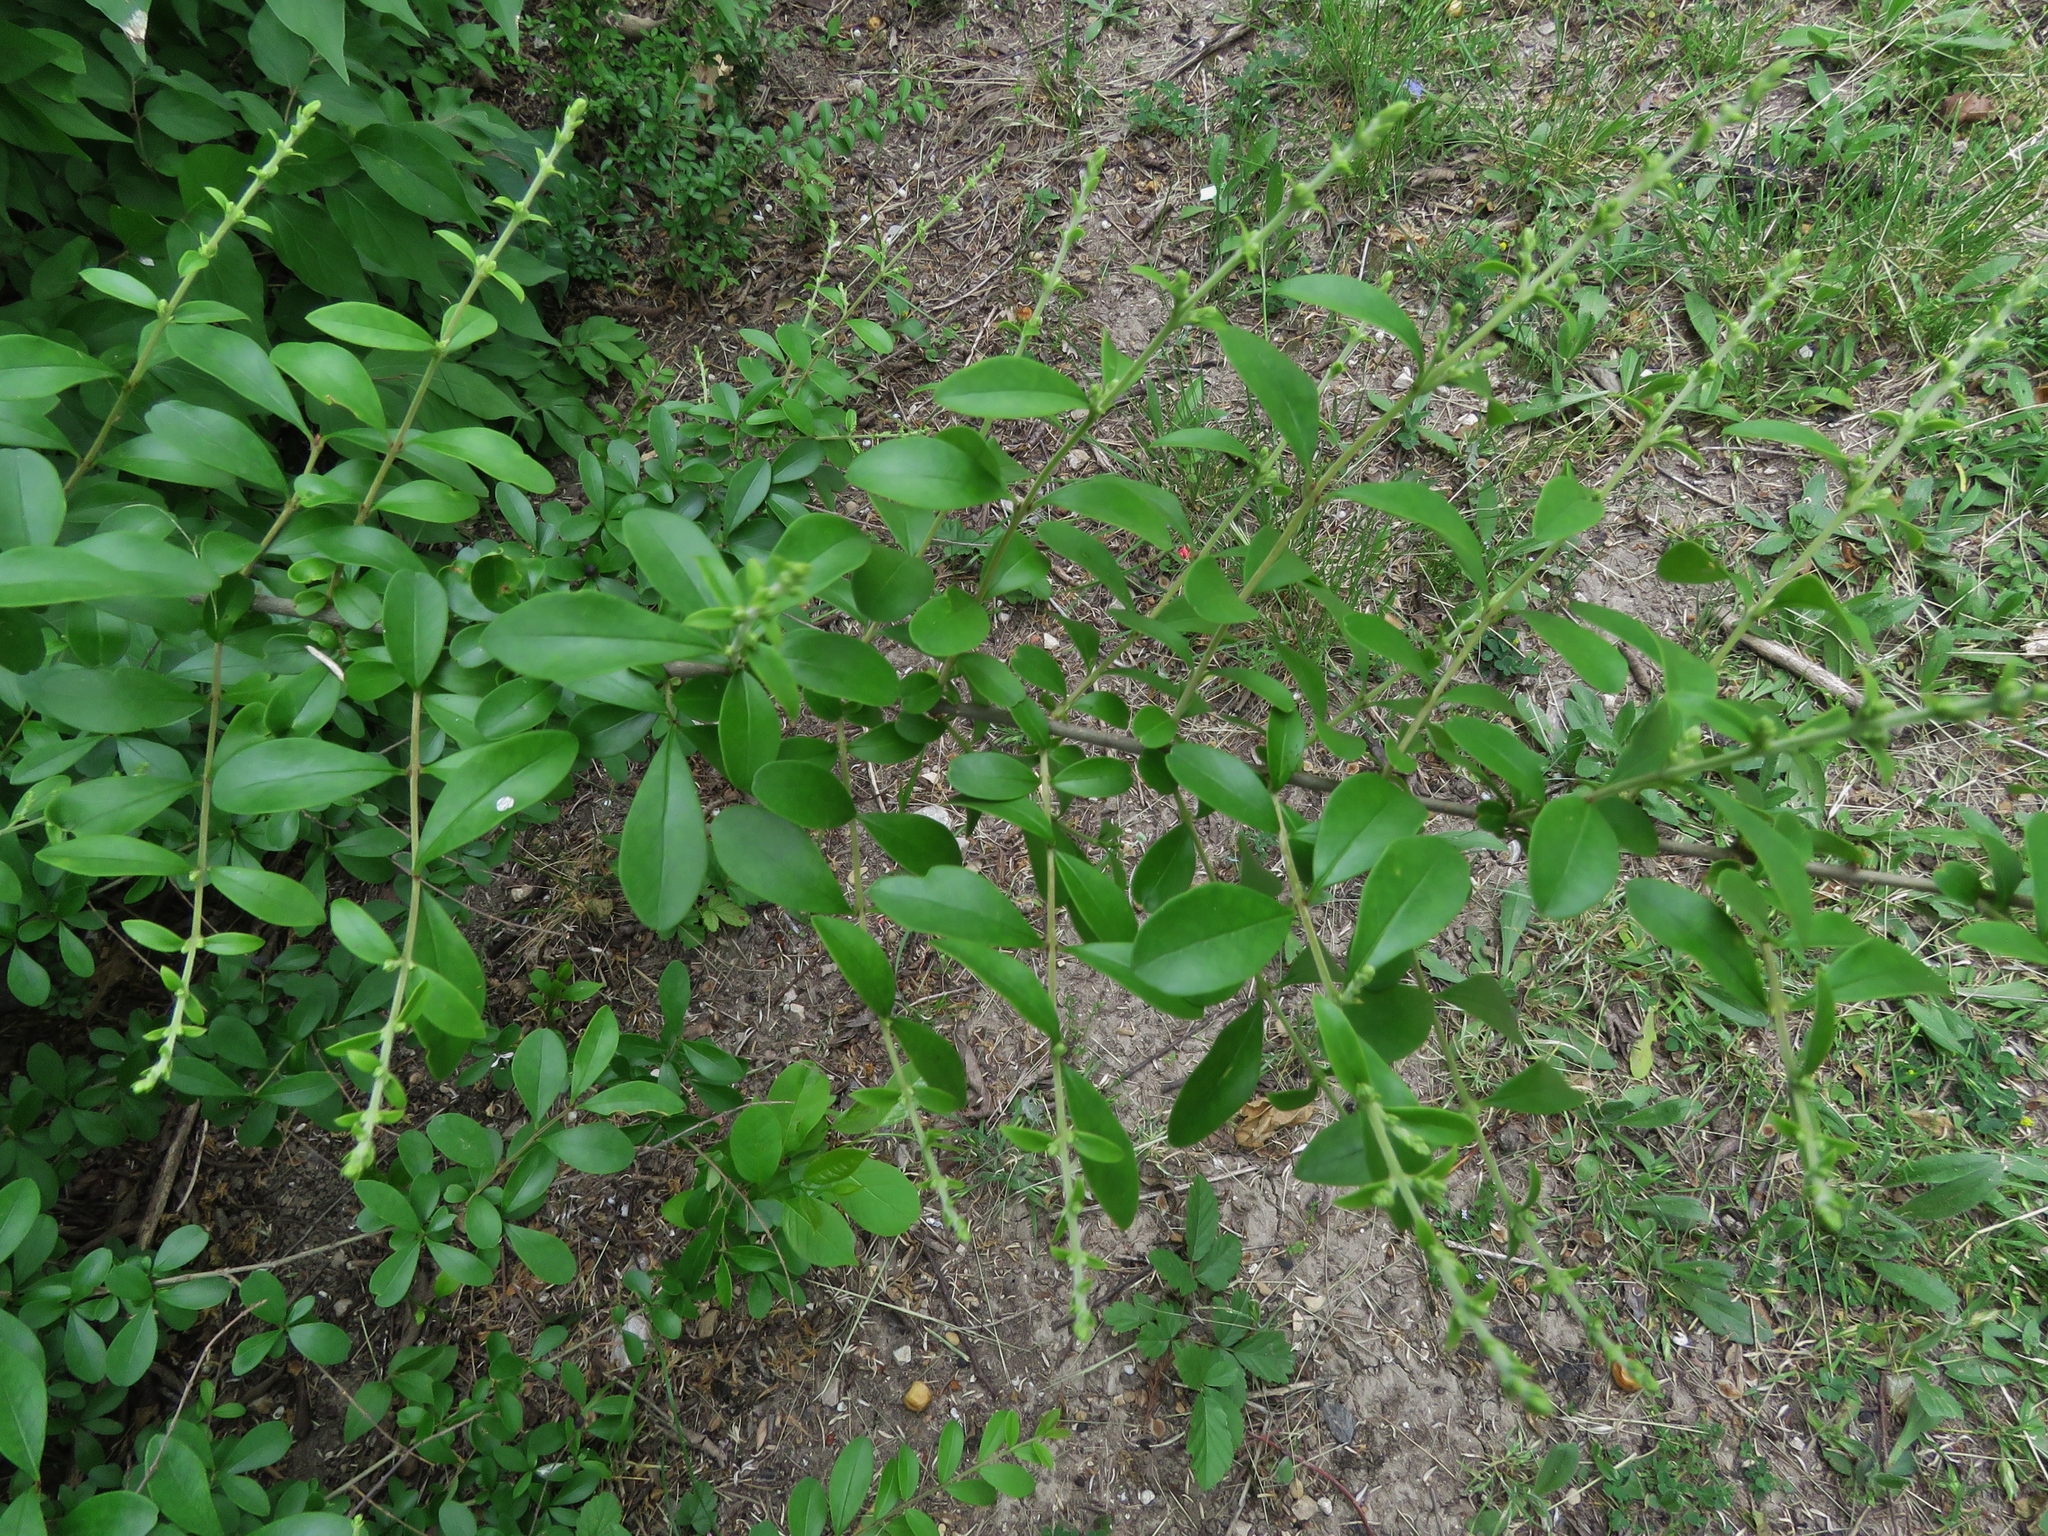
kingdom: Plantae
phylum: Tracheophyta
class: Magnoliopsida
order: Lamiales
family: Oleaceae
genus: Ligustrum
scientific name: Ligustrum quihoui
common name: Waxyleaf privet
